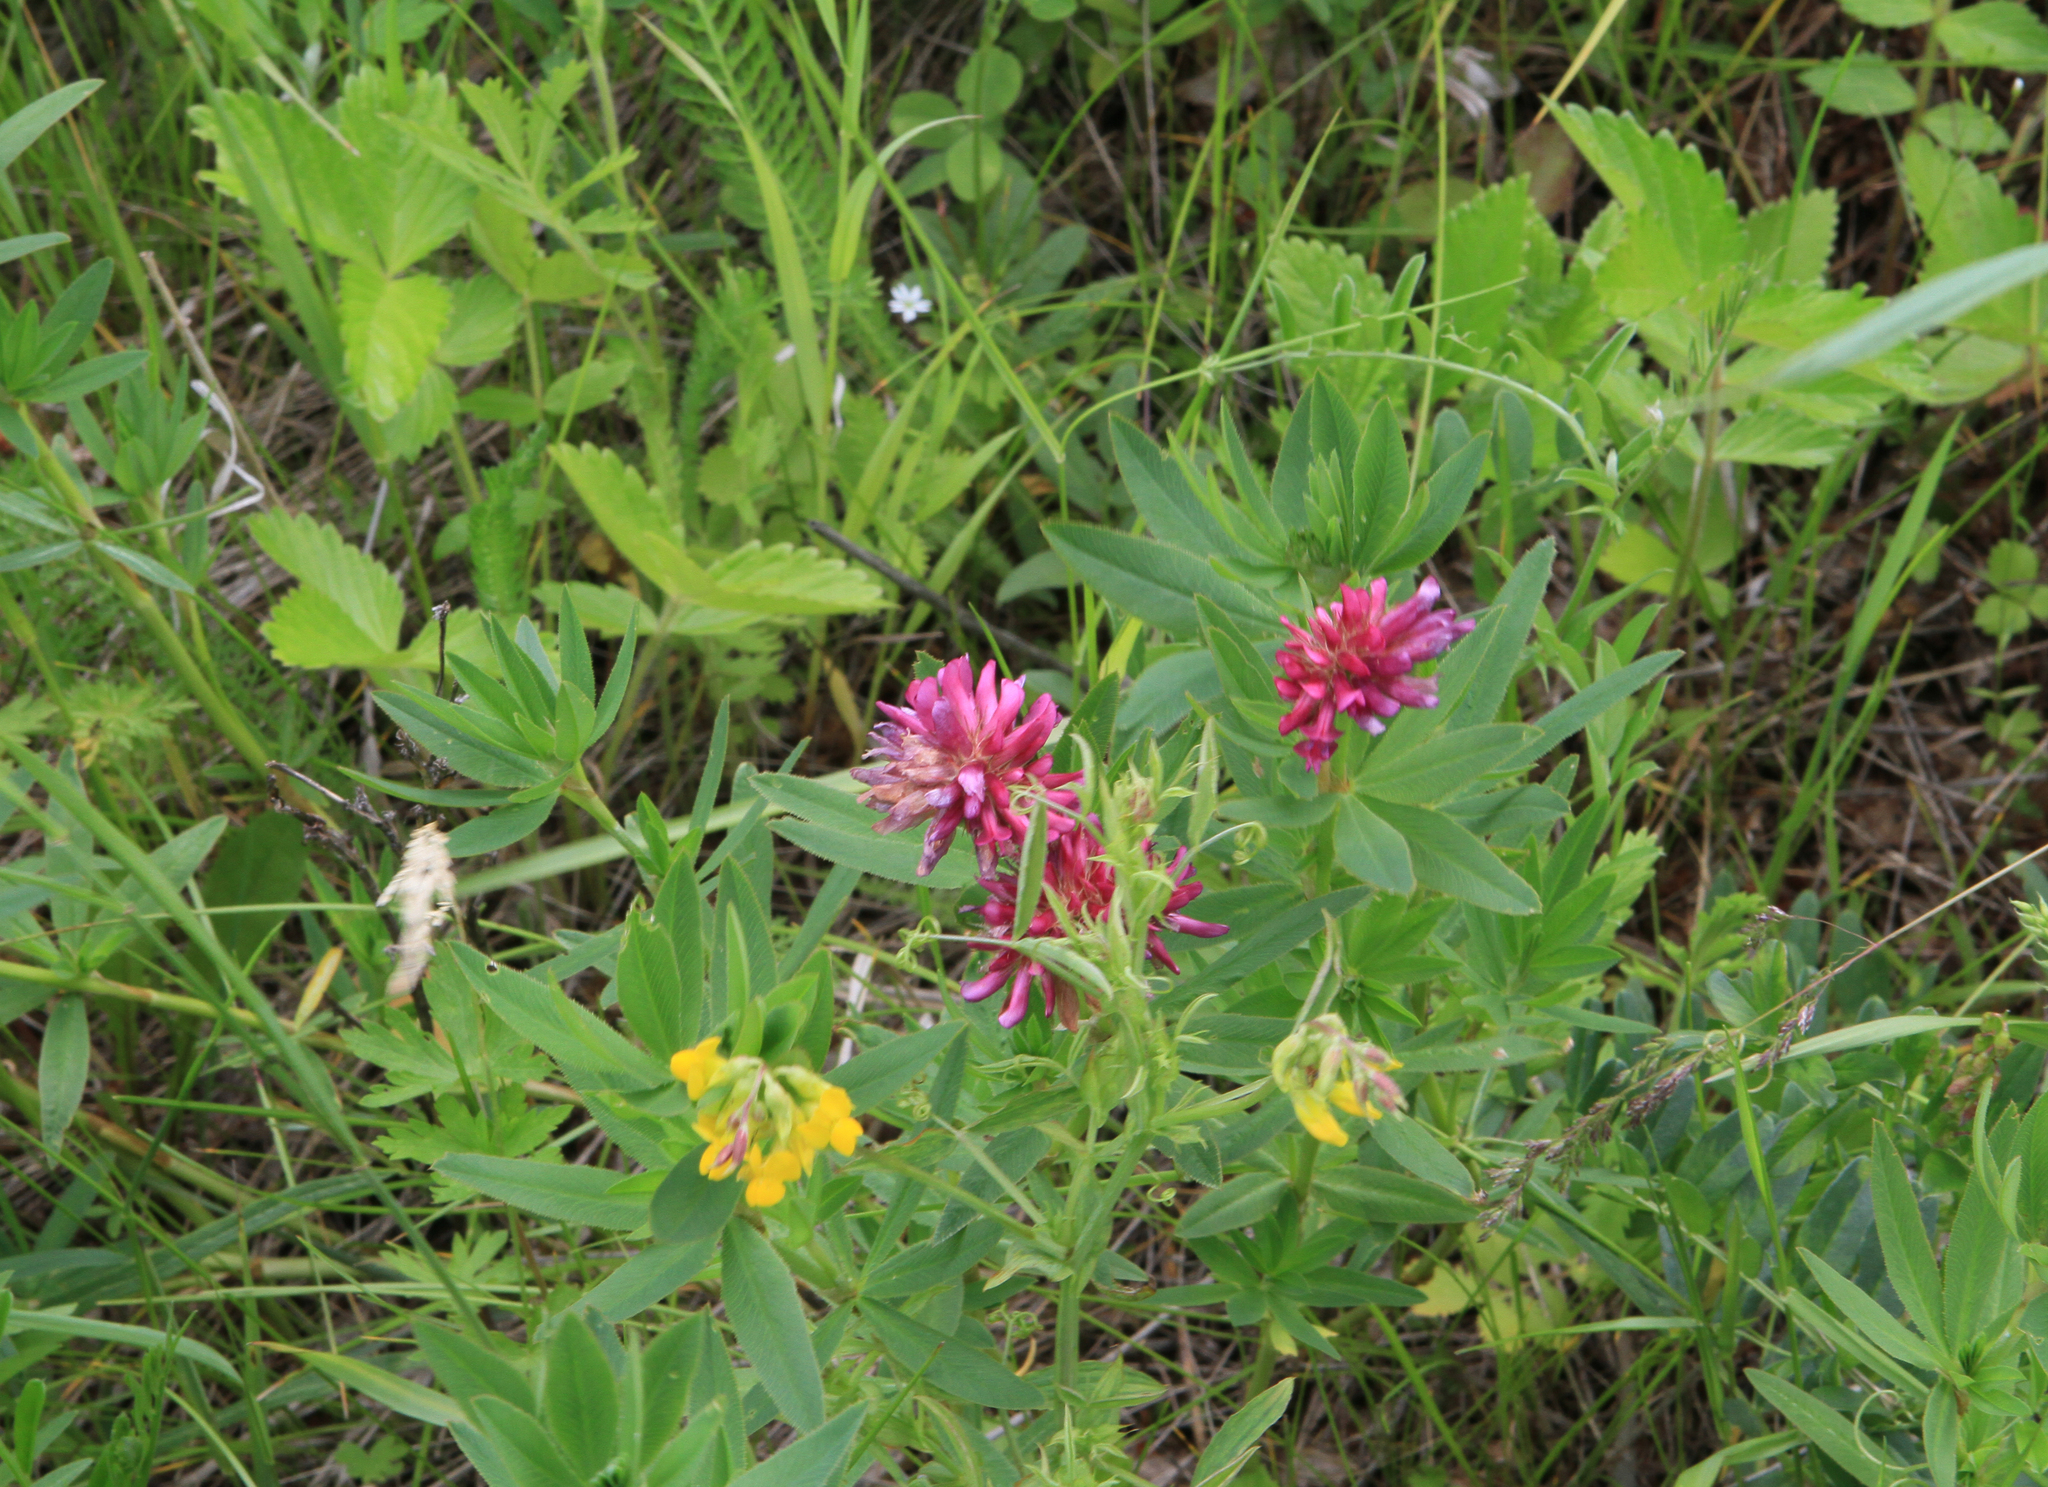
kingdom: Plantae
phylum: Tracheophyta
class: Magnoliopsida
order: Fabales
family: Fabaceae
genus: Lathyrus
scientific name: Lathyrus pratensis
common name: Meadow vetchling
